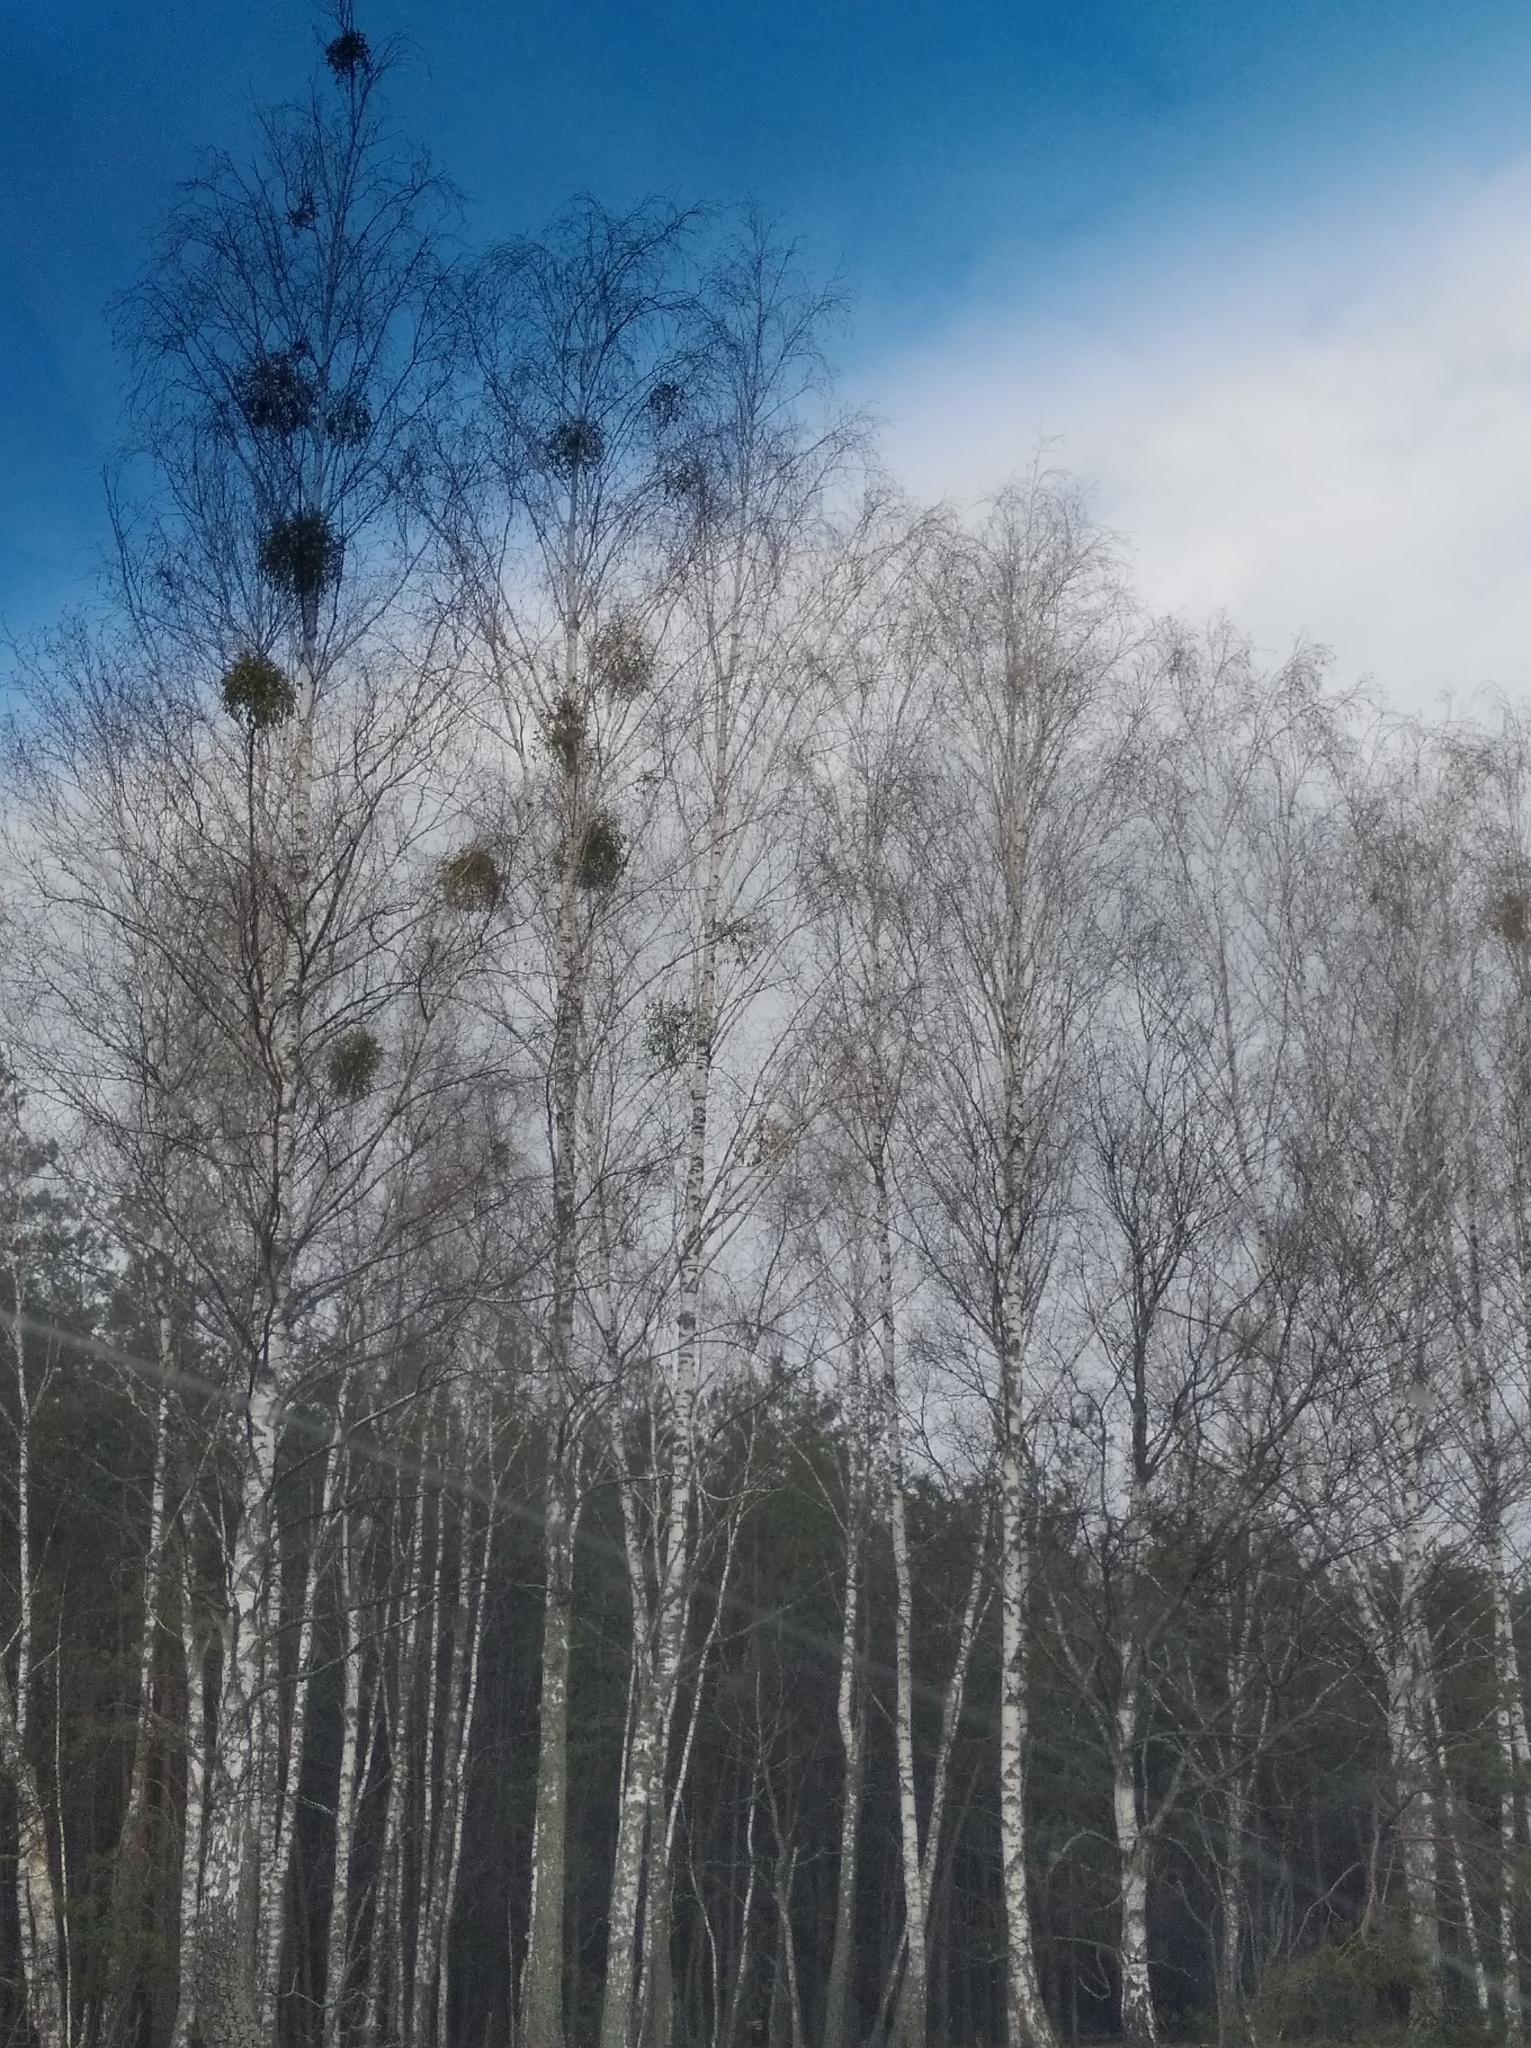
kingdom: Plantae
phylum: Tracheophyta
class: Magnoliopsida
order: Santalales
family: Viscaceae
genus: Viscum
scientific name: Viscum album
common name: Mistletoe
